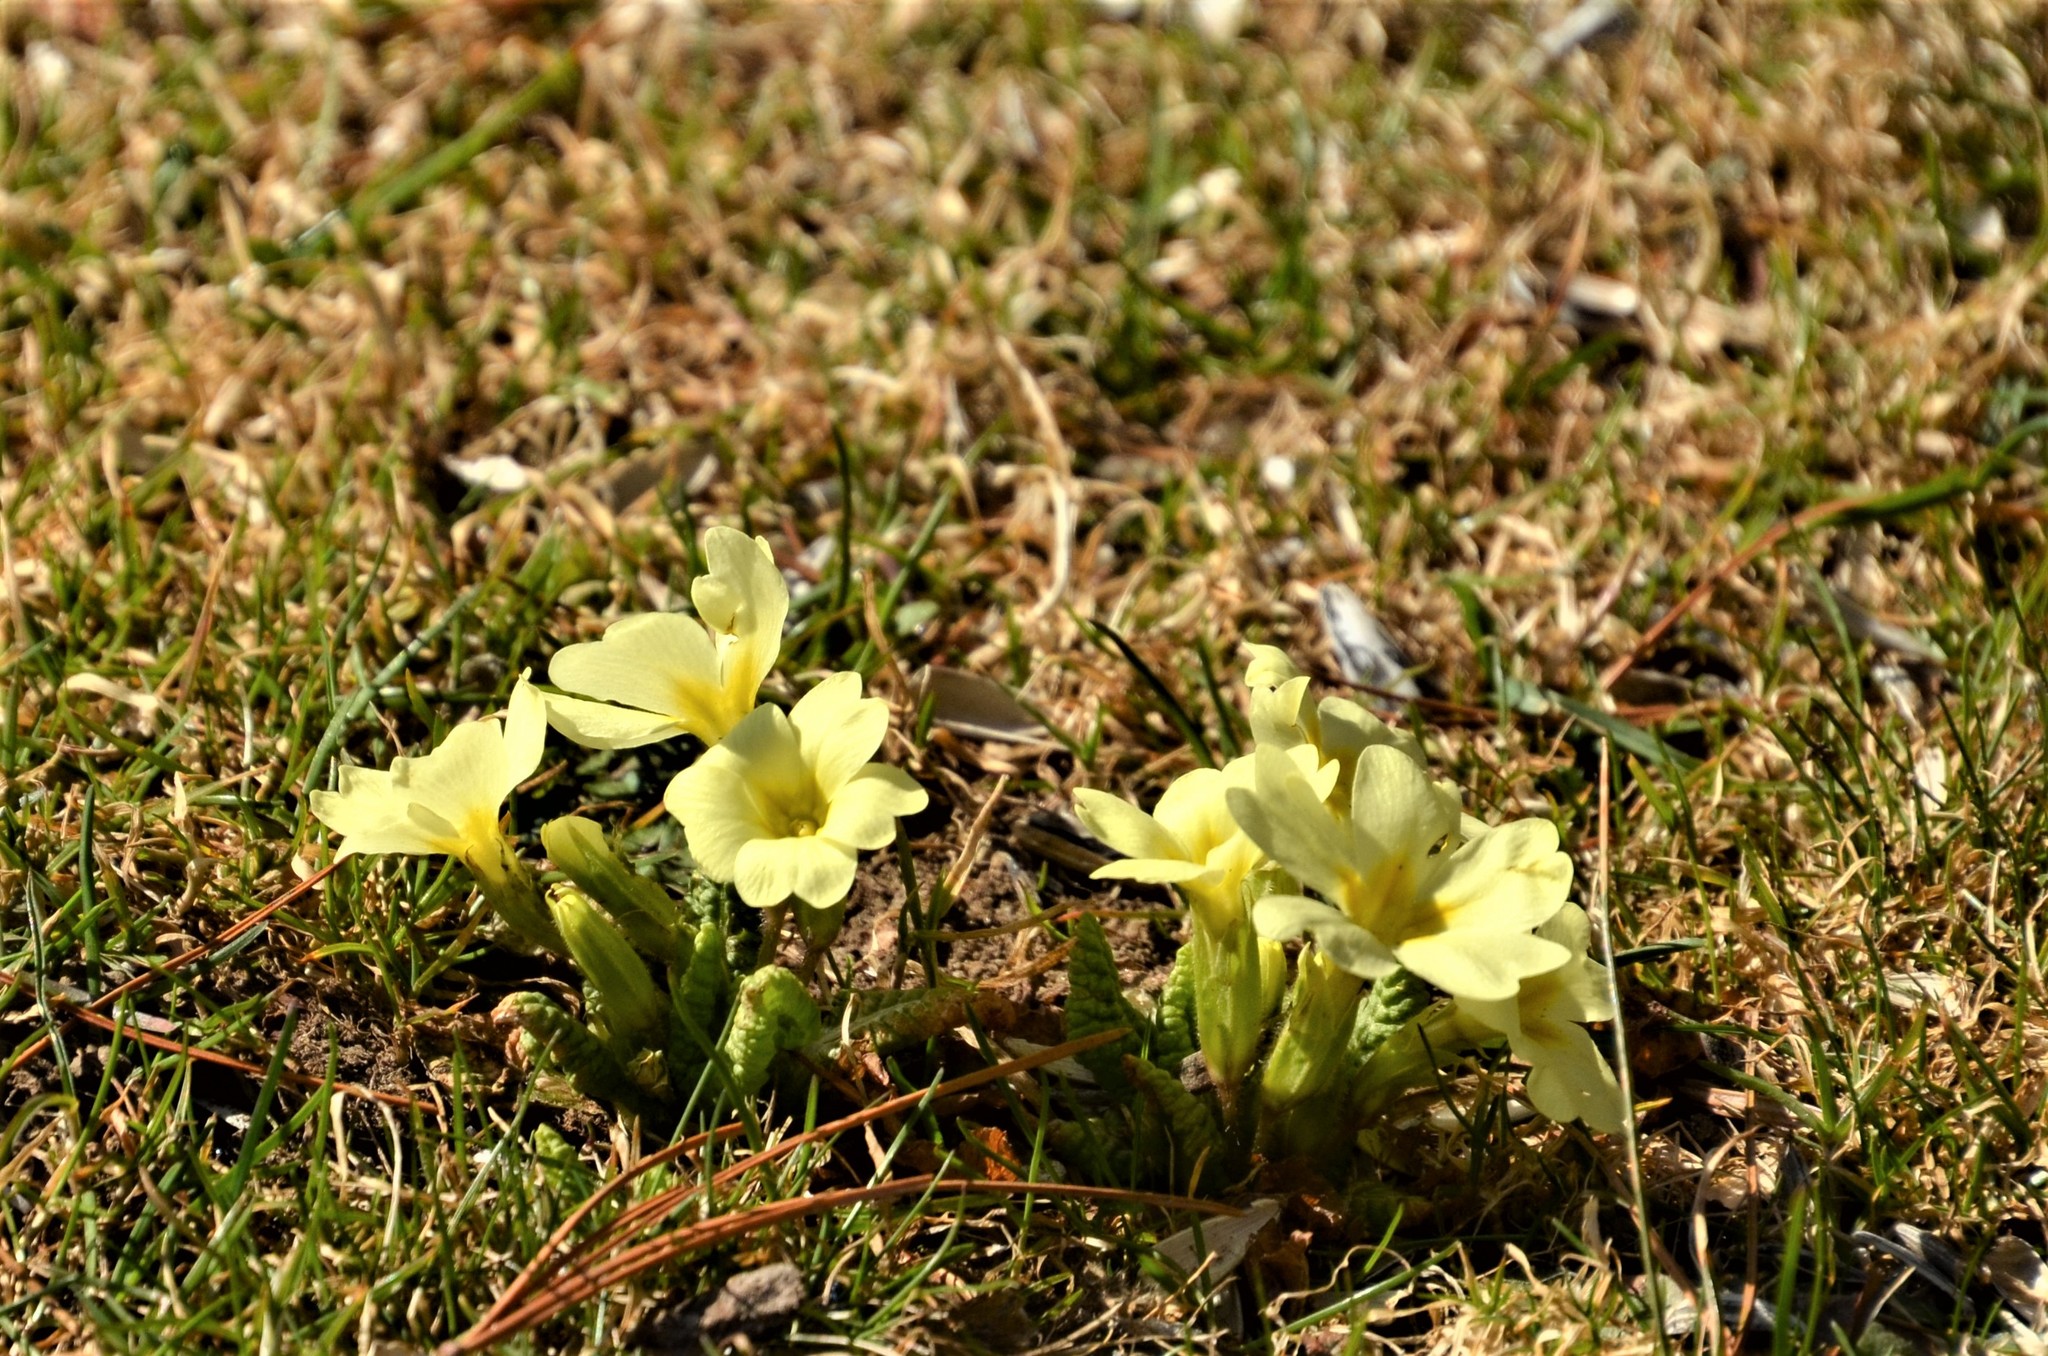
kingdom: Plantae
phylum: Tracheophyta
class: Magnoliopsida
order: Ericales
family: Primulaceae
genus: Primula
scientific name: Primula vulgaris
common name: Primrose
